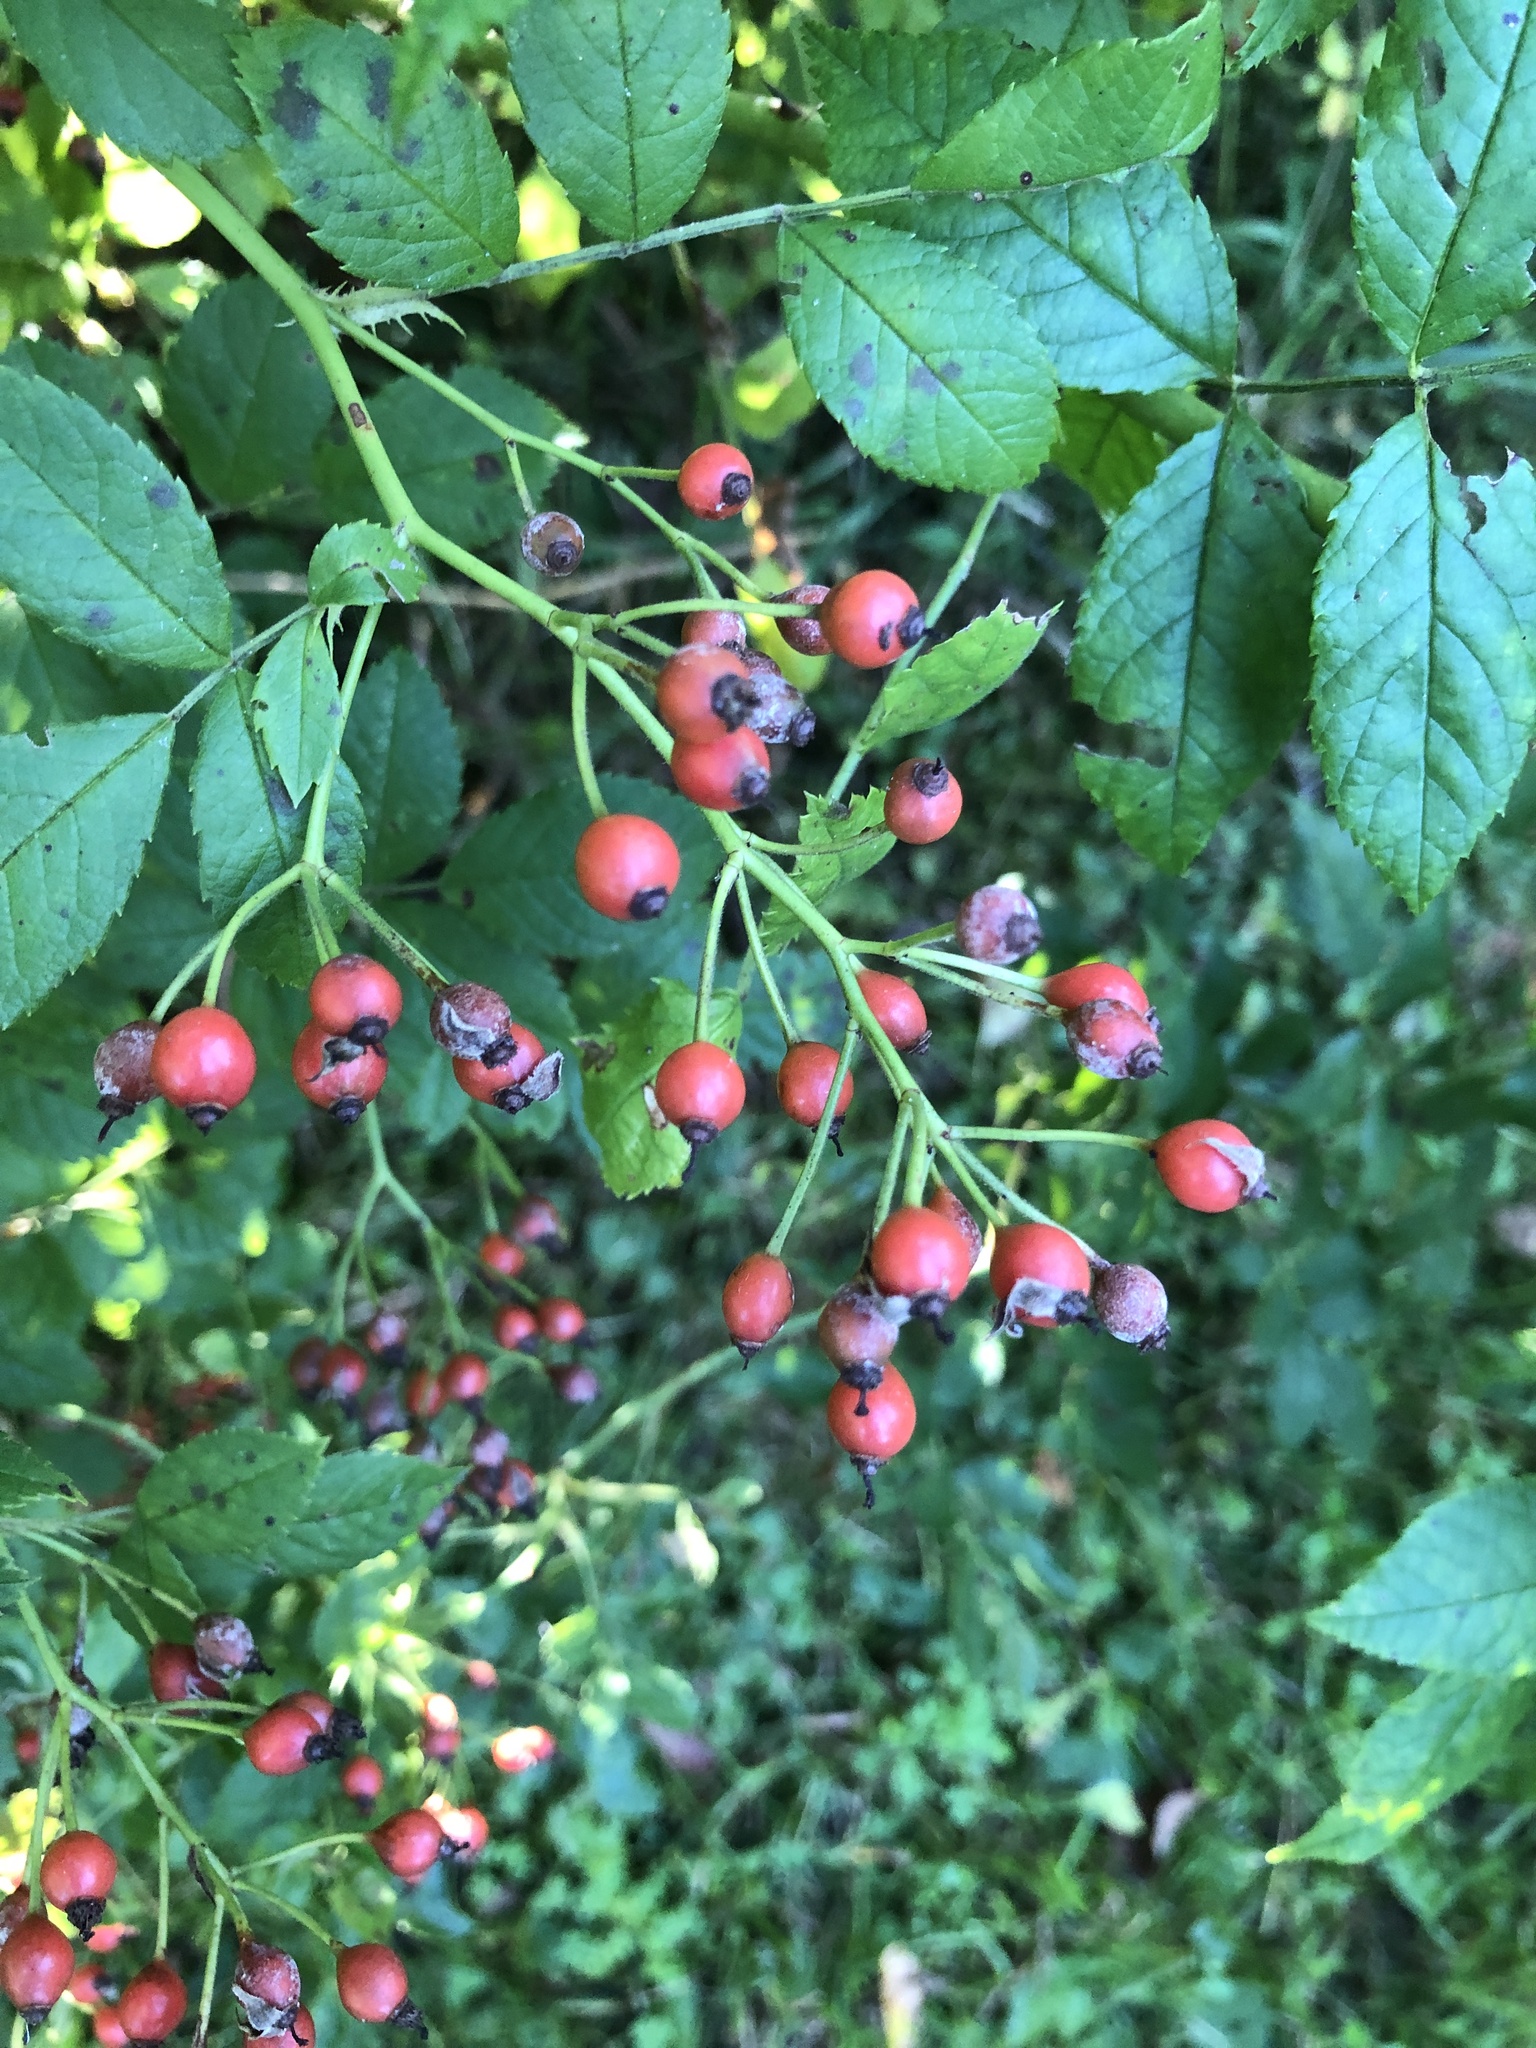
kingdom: Plantae
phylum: Tracheophyta
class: Magnoliopsida
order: Rosales
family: Rosaceae
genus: Rosa
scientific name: Rosa multiflora
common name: Multiflora rose
